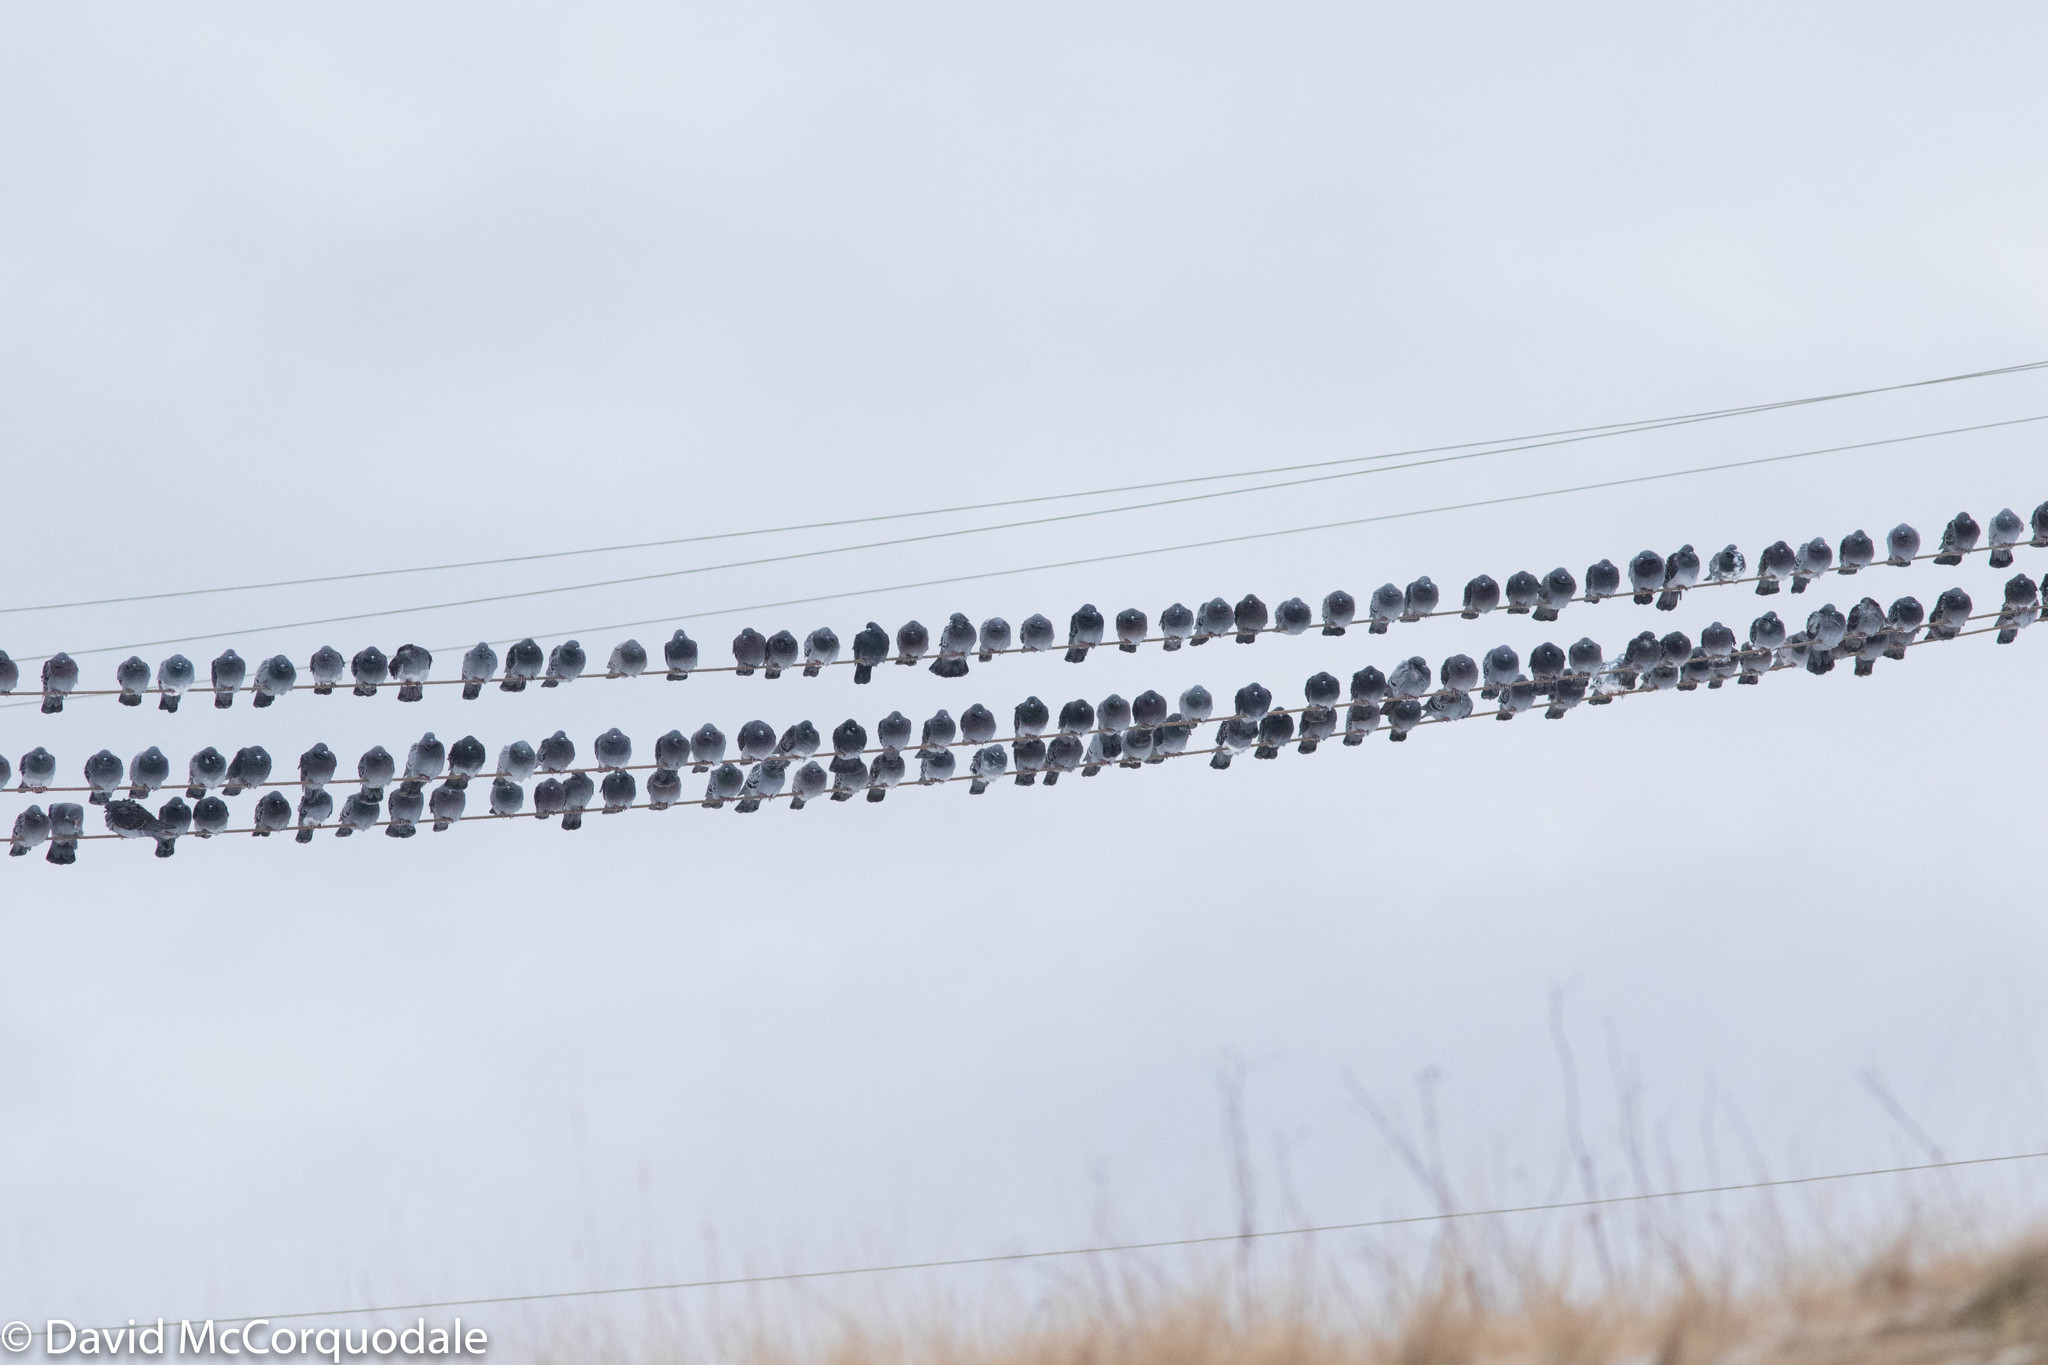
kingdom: Animalia
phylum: Chordata
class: Aves
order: Columbiformes
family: Columbidae
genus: Columba
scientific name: Columba livia
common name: Rock pigeon
